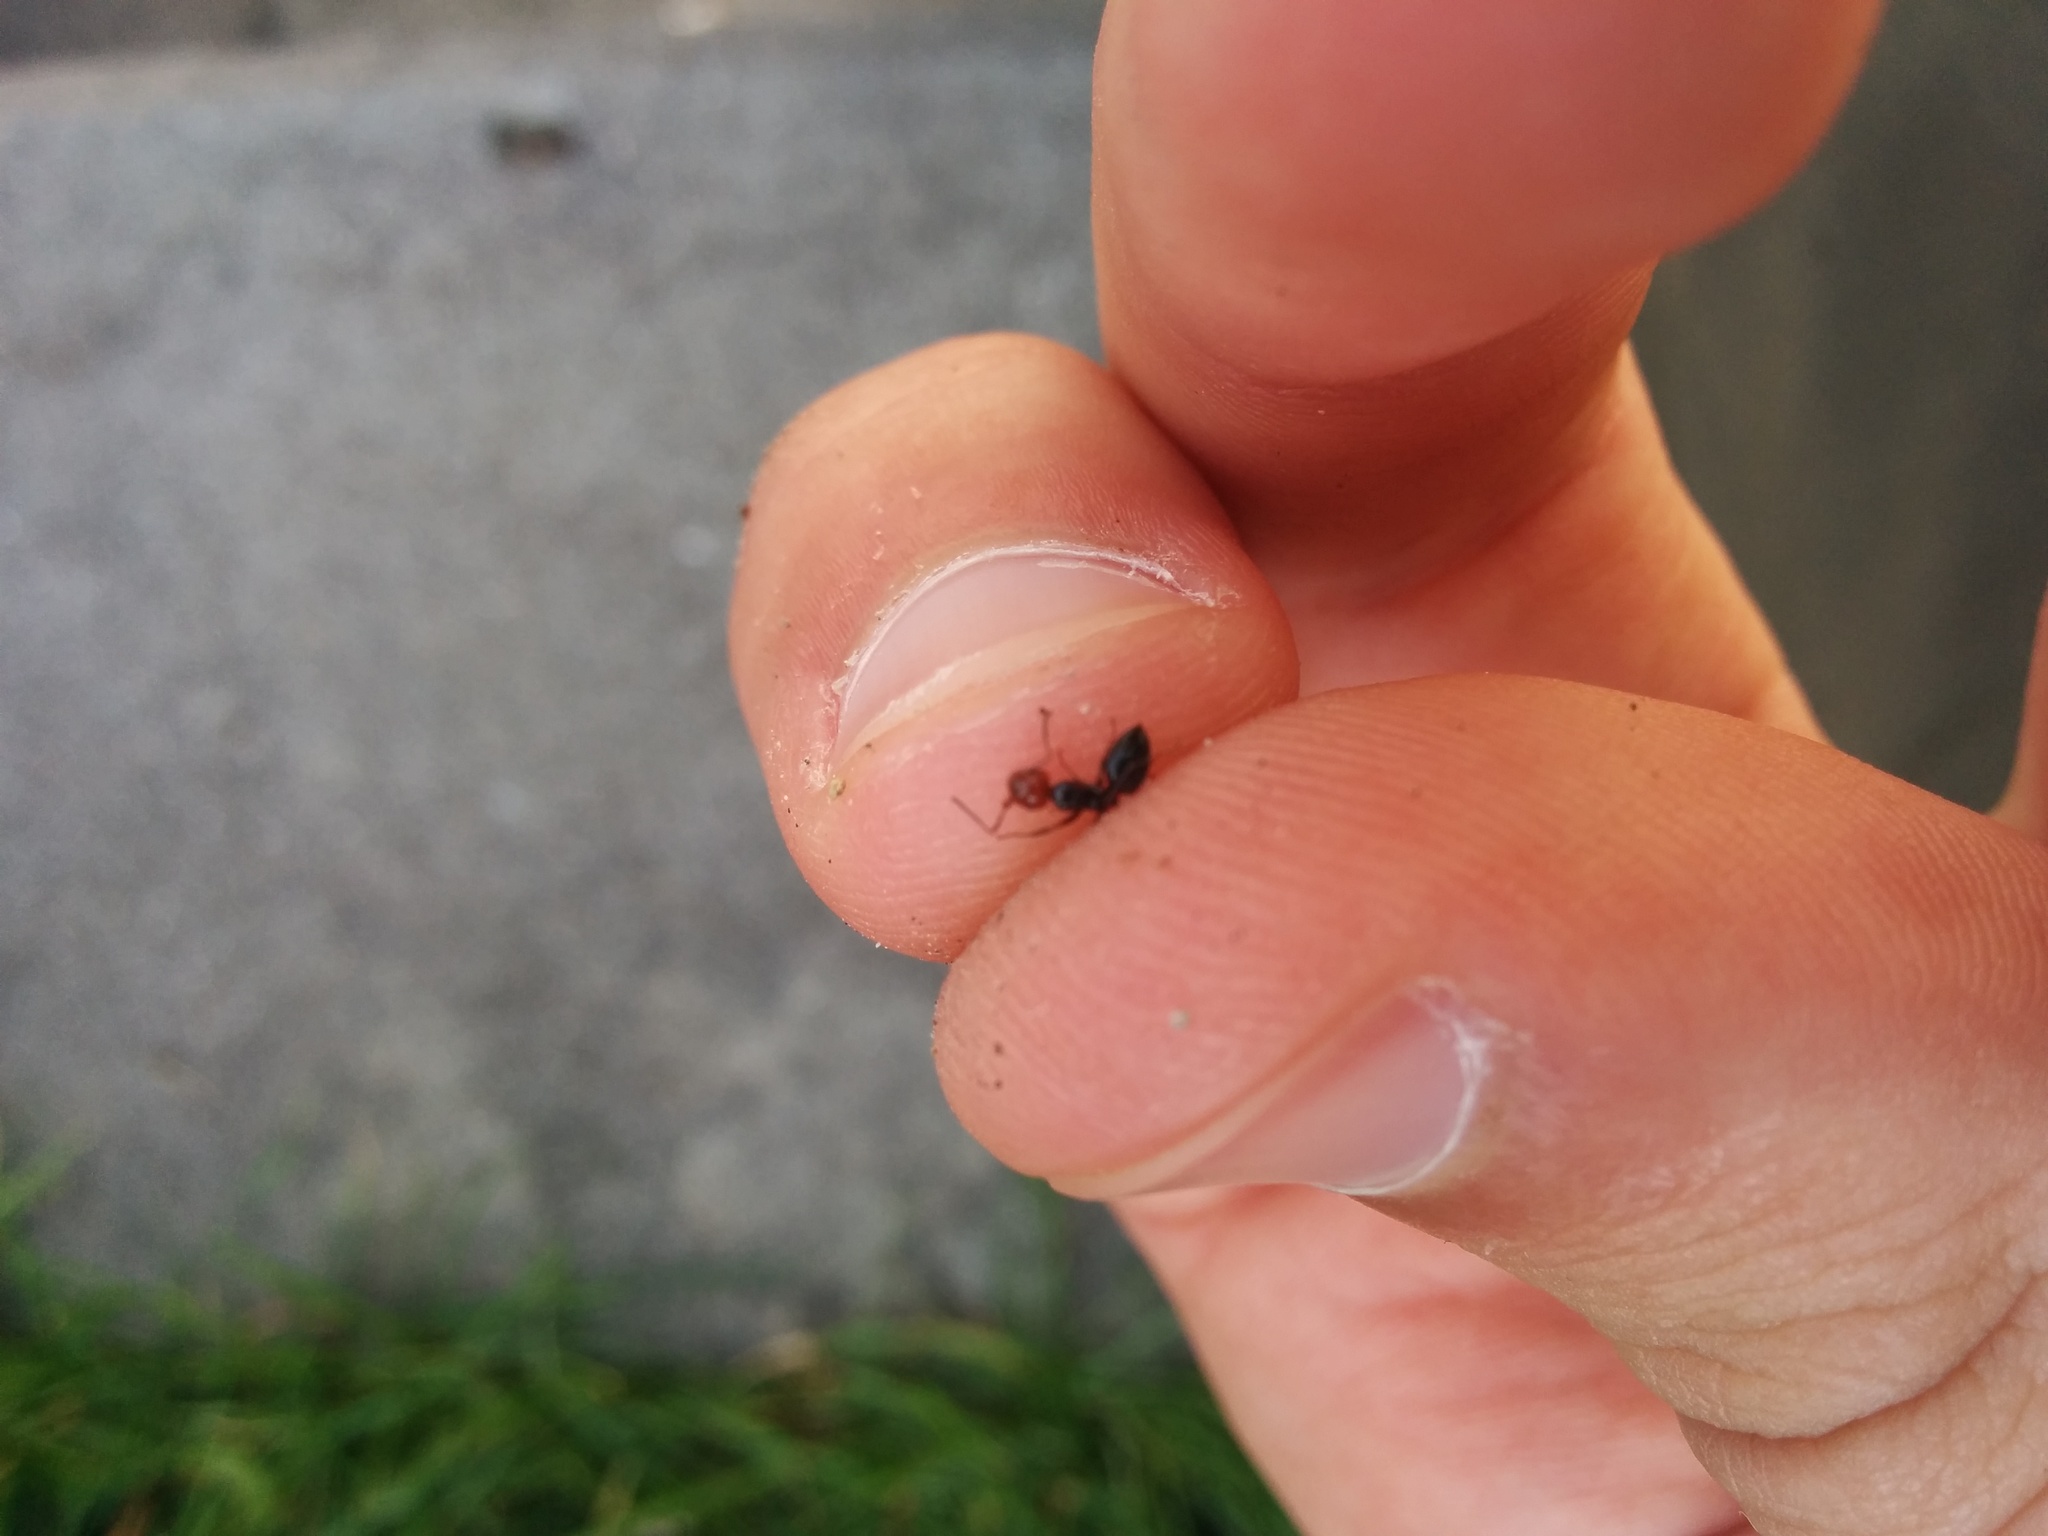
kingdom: Animalia
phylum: Arthropoda
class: Insecta
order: Hymenoptera
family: Formicidae
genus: Crematogaster
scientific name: Crematogaster scutellaris
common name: Fourmi du liège
